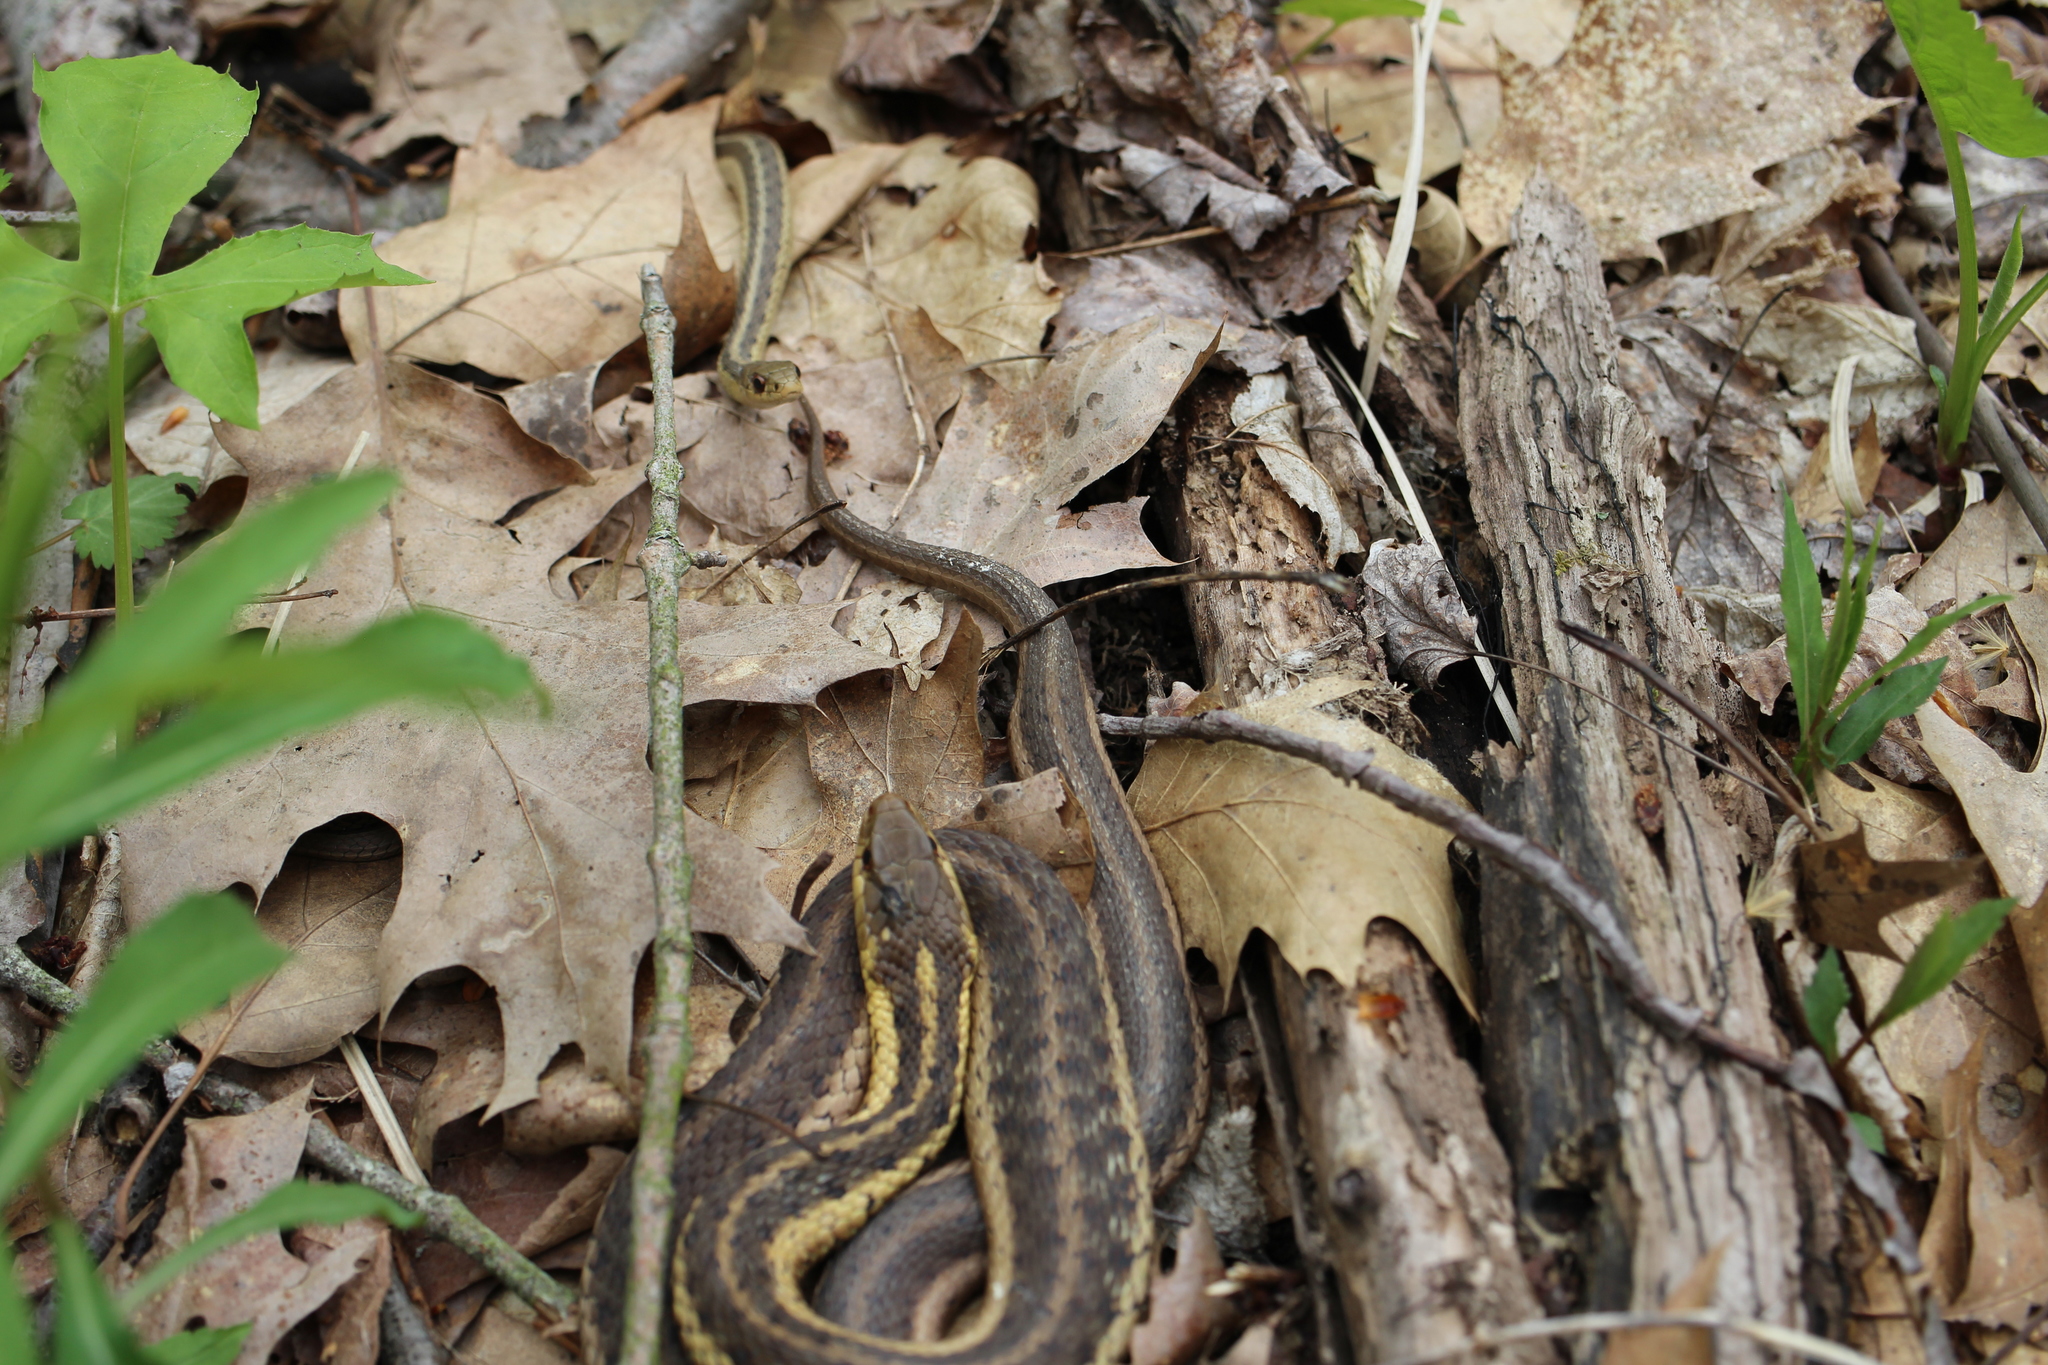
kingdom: Animalia
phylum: Chordata
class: Squamata
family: Colubridae
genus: Thamnophis
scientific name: Thamnophis sirtalis
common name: Common garter snake
